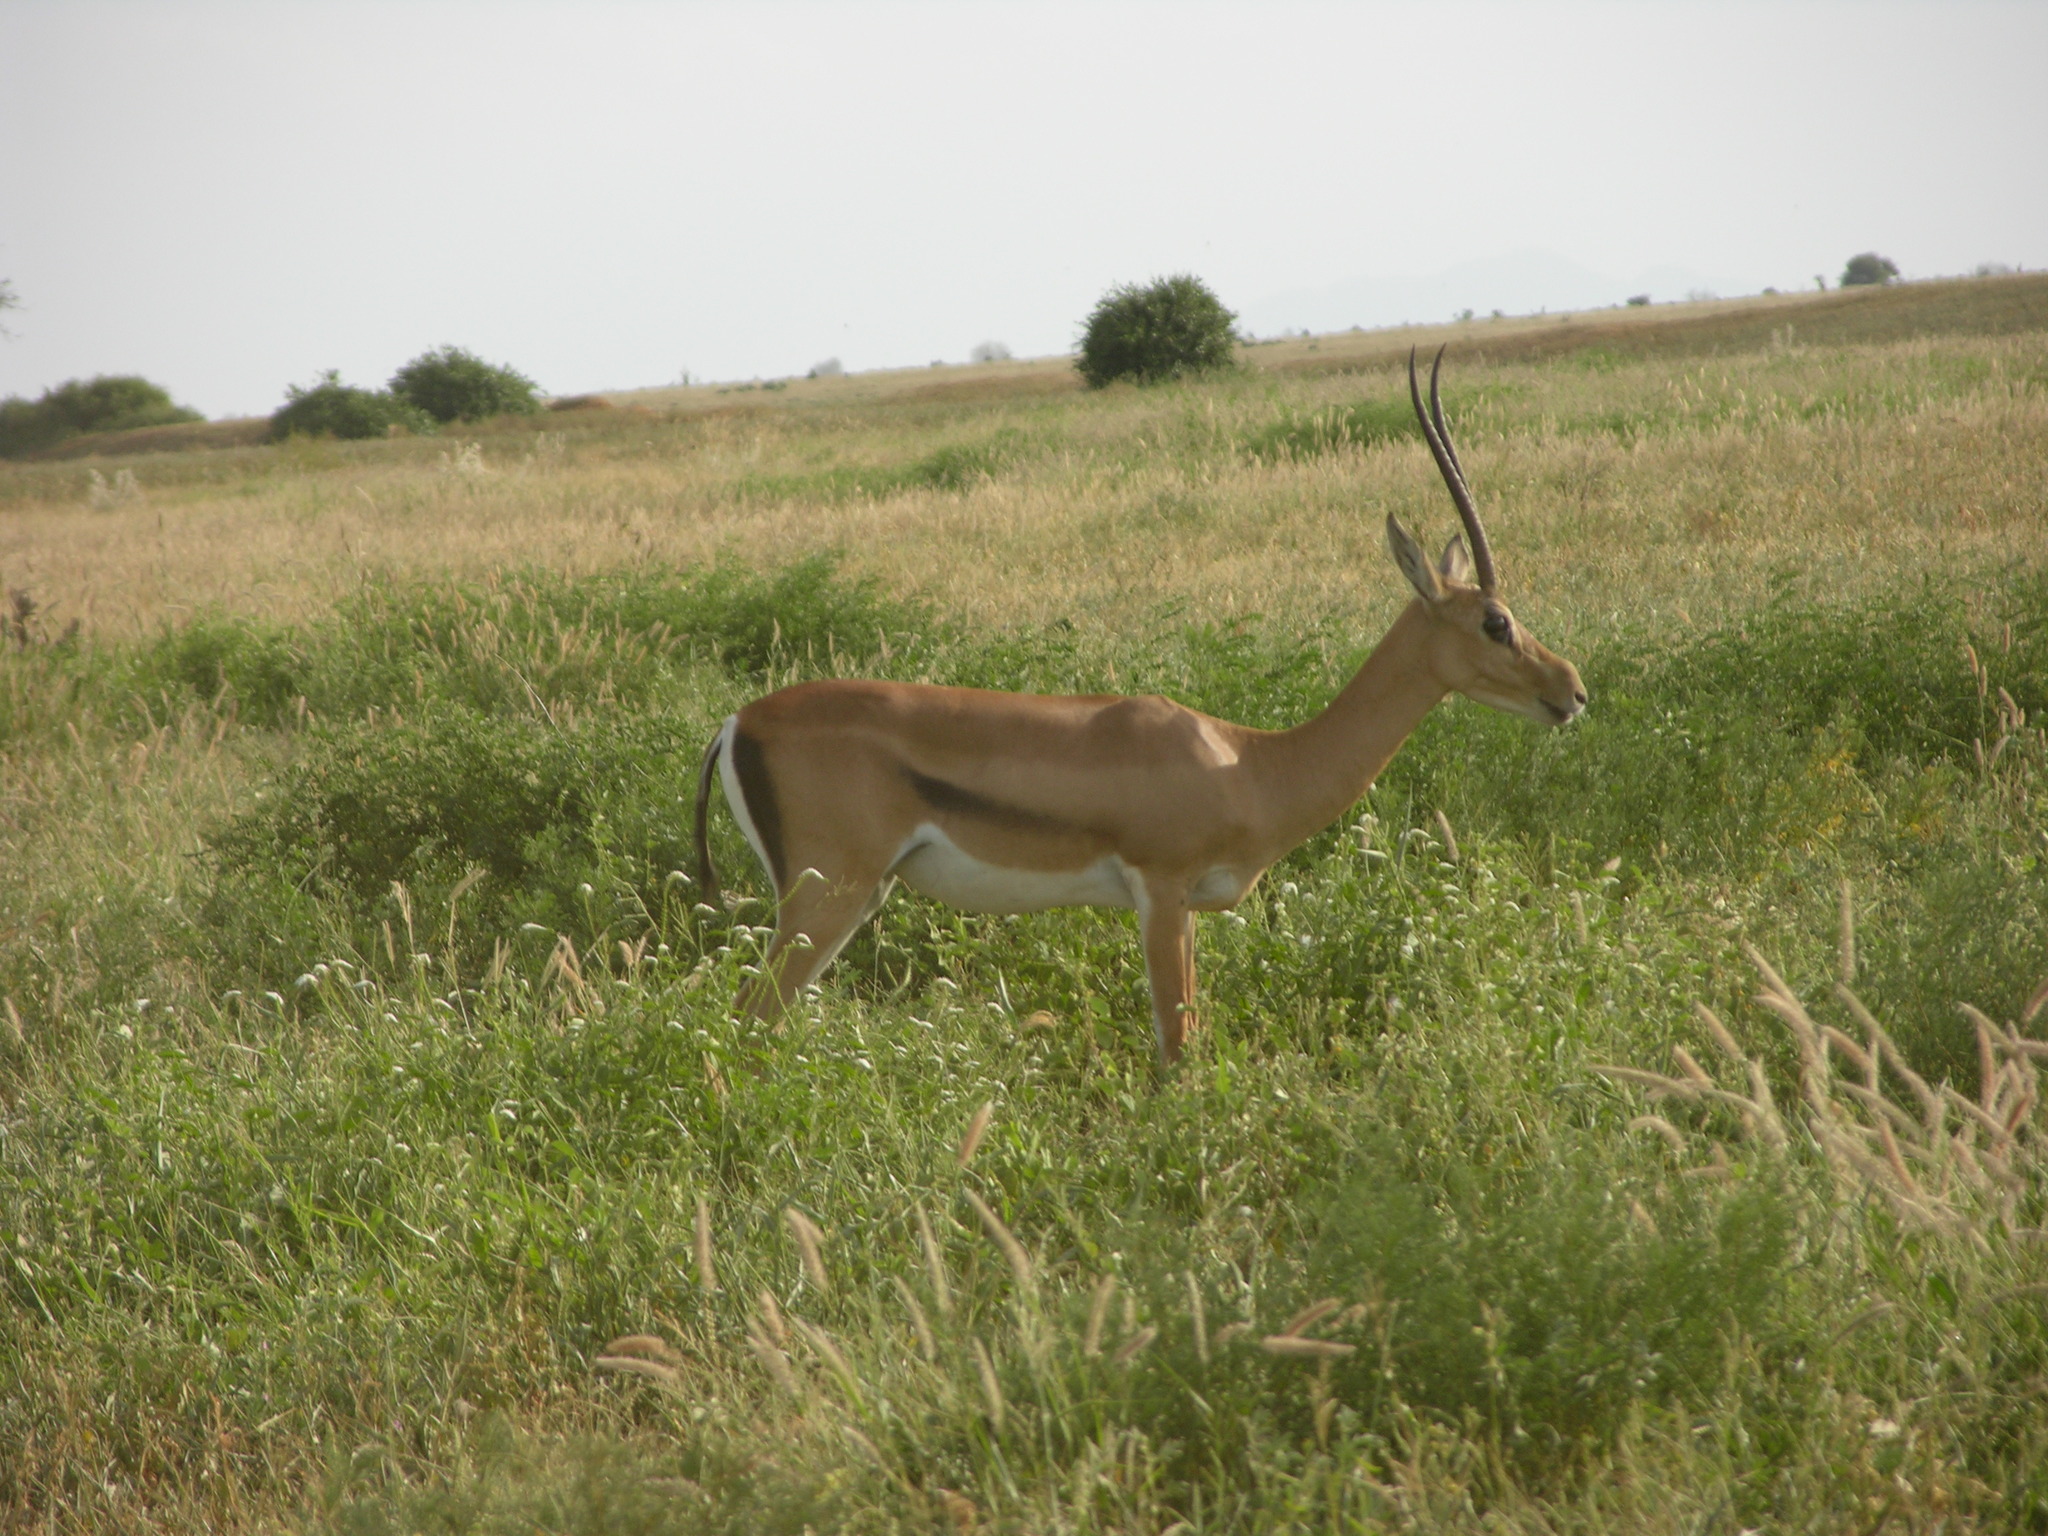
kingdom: Animalia
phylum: Chordata
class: Mammalia
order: Artiodactyla
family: Bovidae
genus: Nanger
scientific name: Nanger granti
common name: Grant's gazelle
